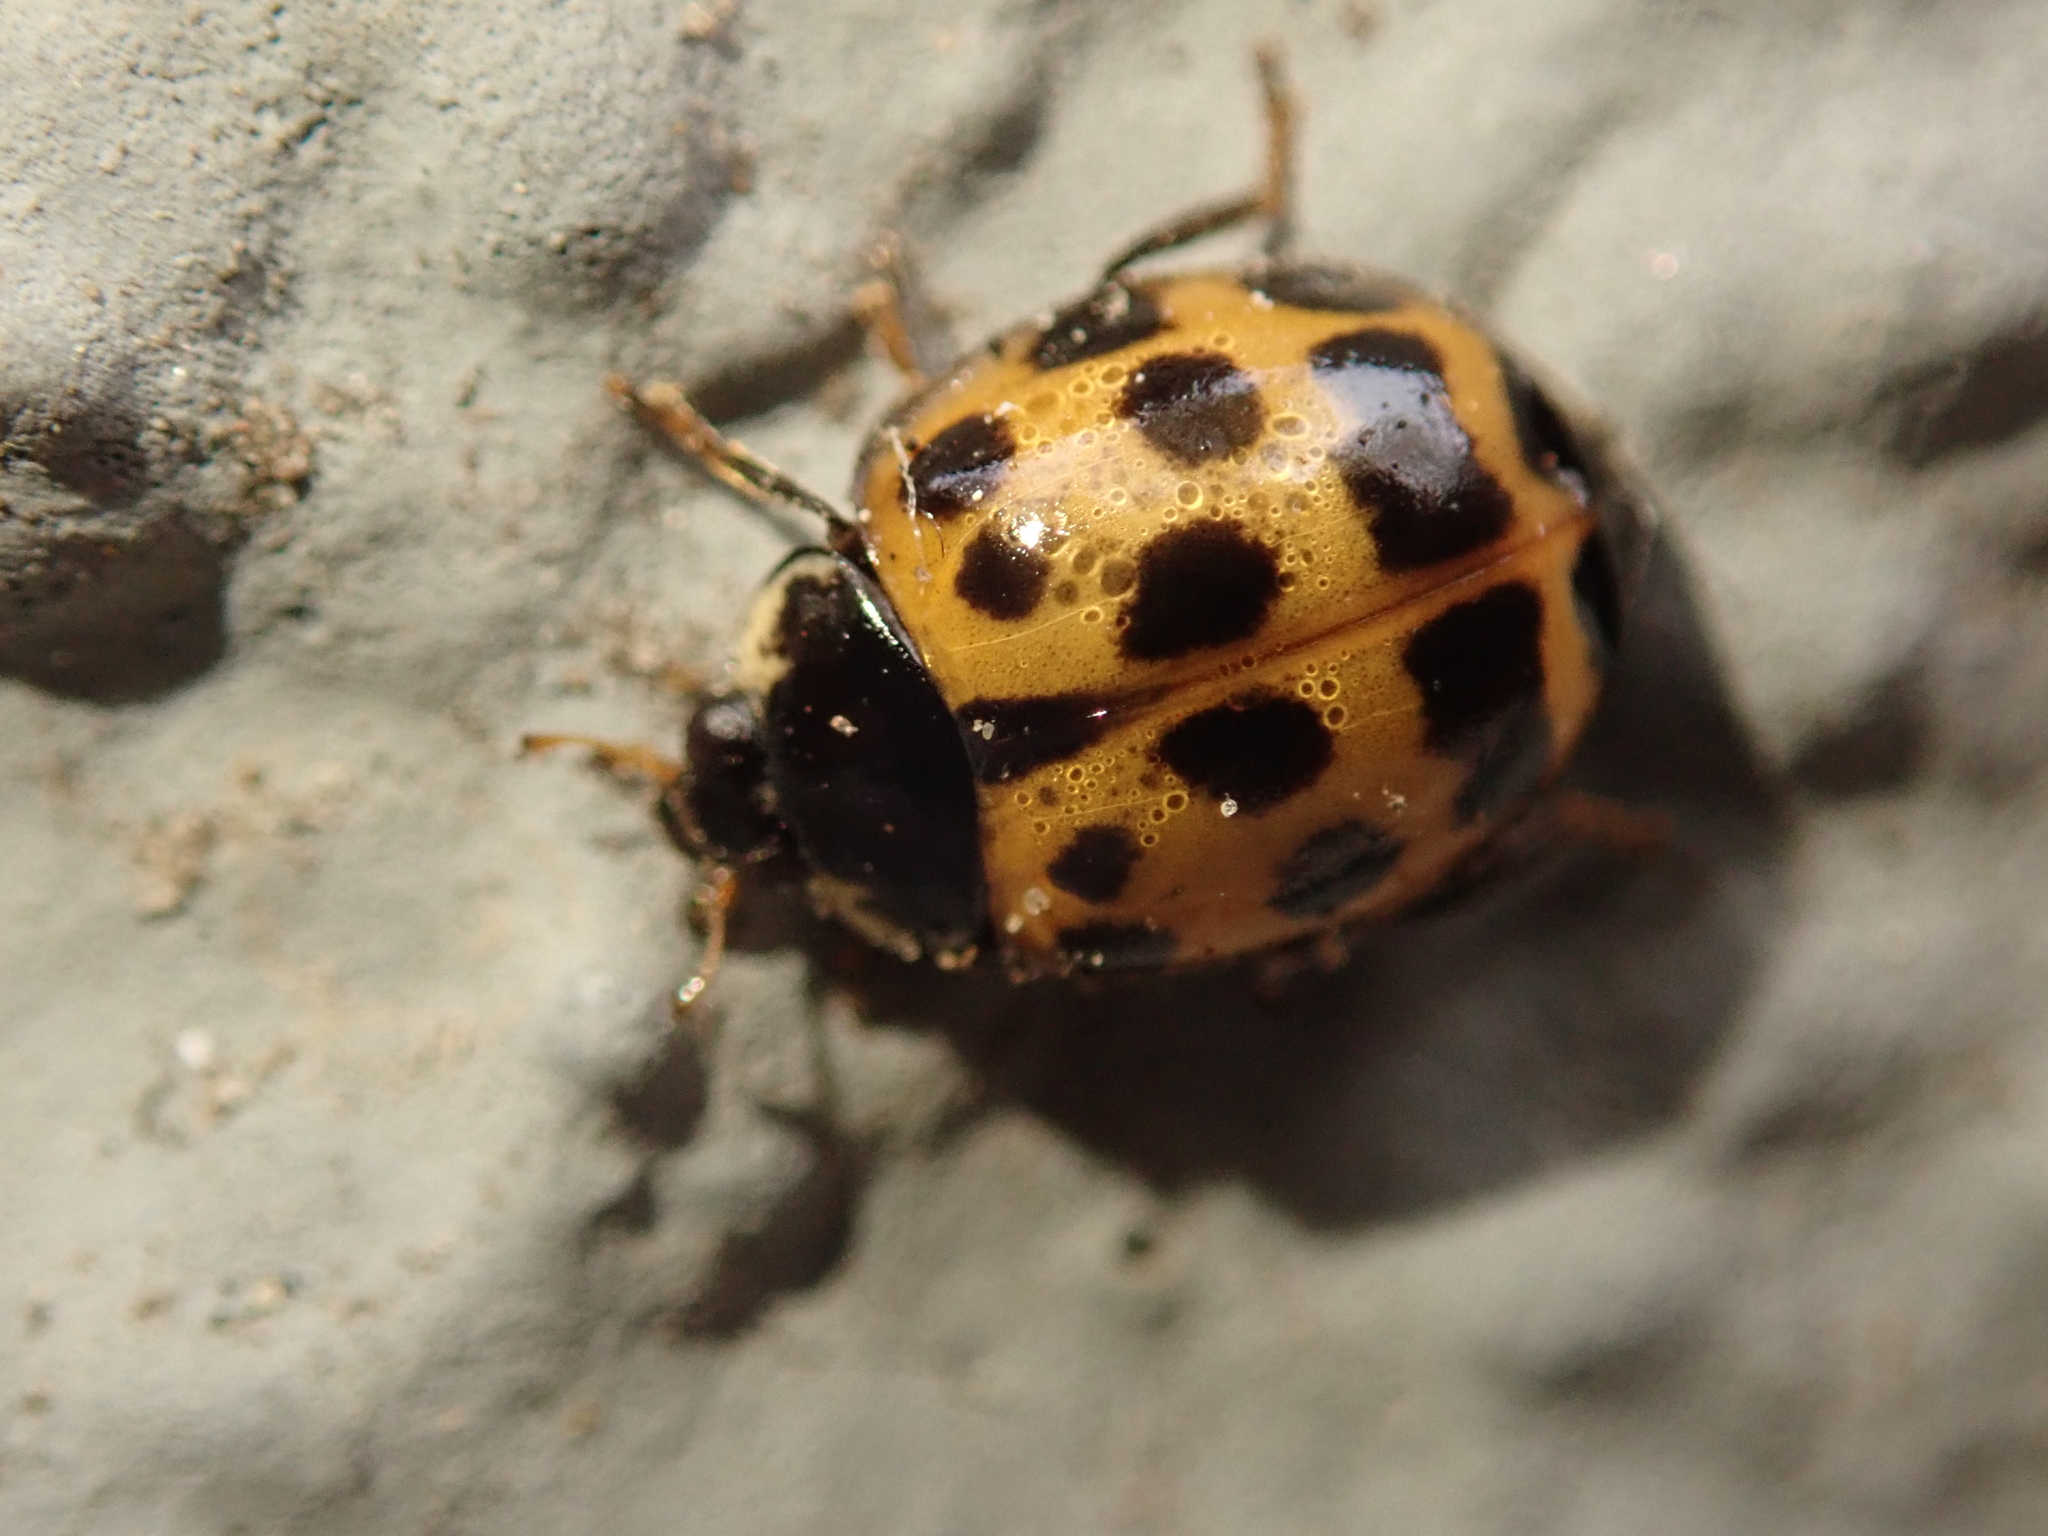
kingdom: Animalia
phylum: Arthropoda
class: Insecta
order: Coleoptera
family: Coccinellidae
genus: Harmonia
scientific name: Harmonia axyridis
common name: Harlequin ladybird
